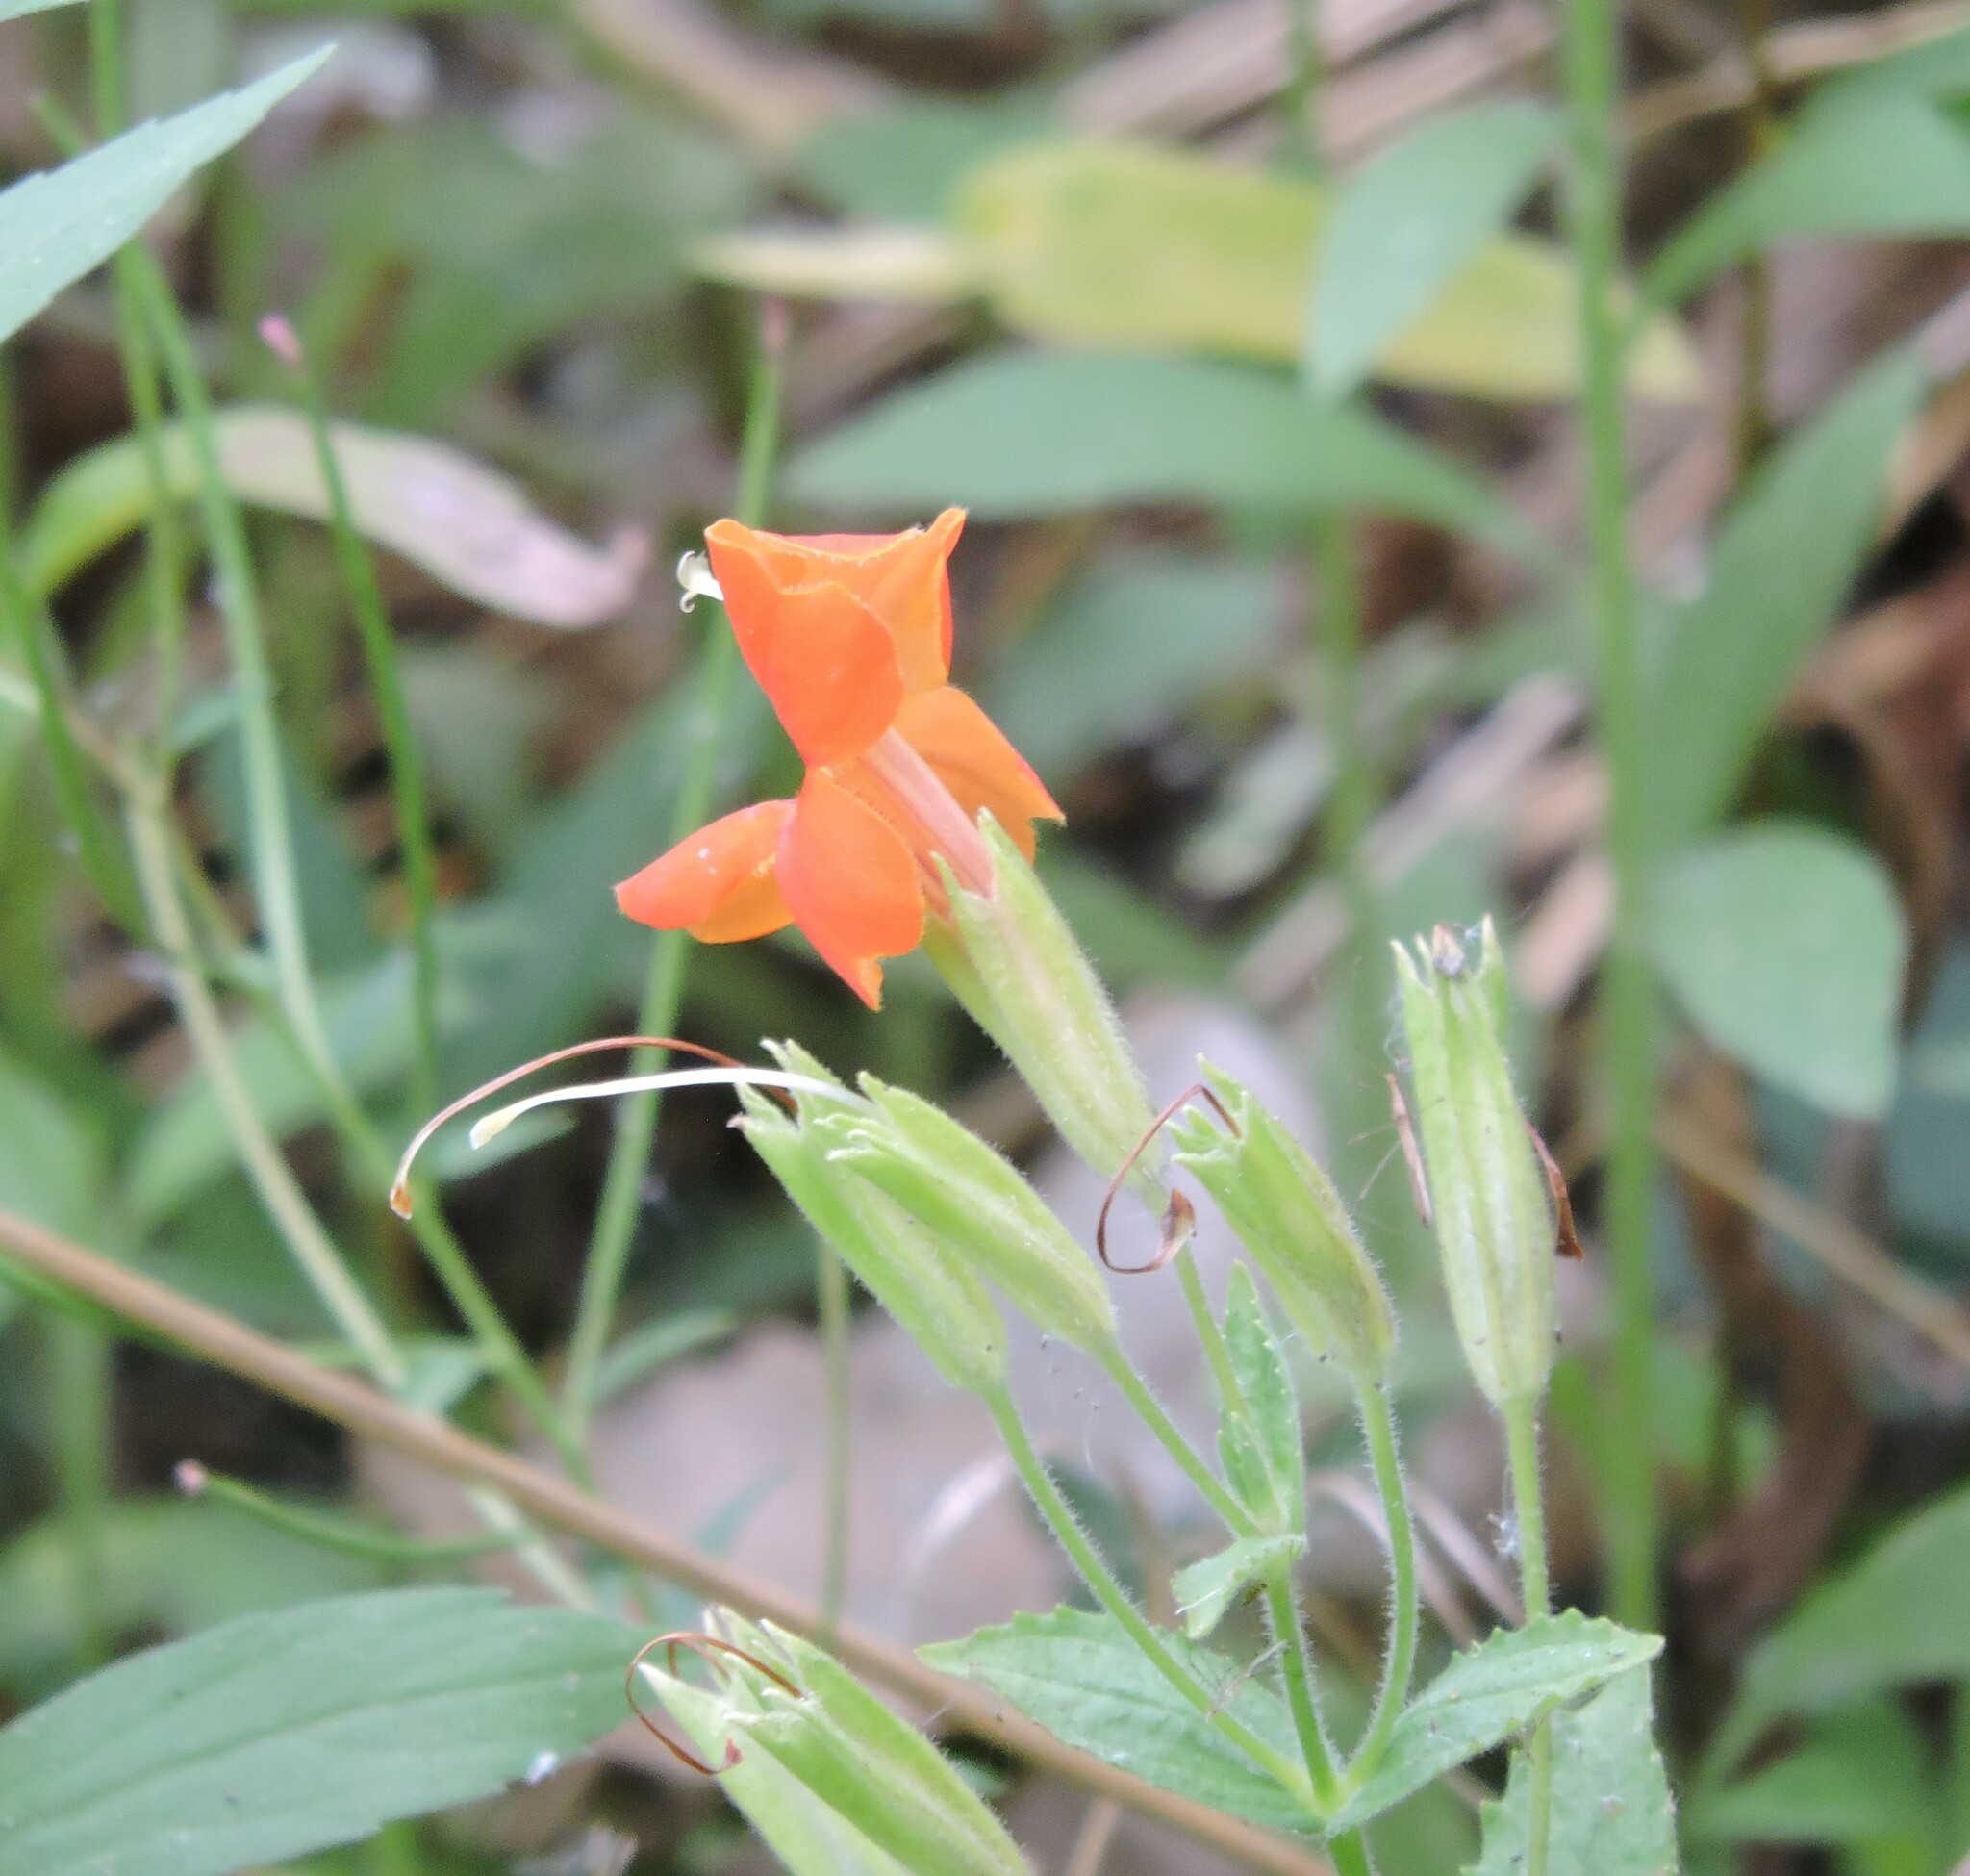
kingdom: Plantae
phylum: Tracheophyta
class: Magnoliopsida
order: Lamiales
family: Phrymaceae
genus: Erythranthe
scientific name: Erythranthe cardinalis
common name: Scarlet monkey-flower
